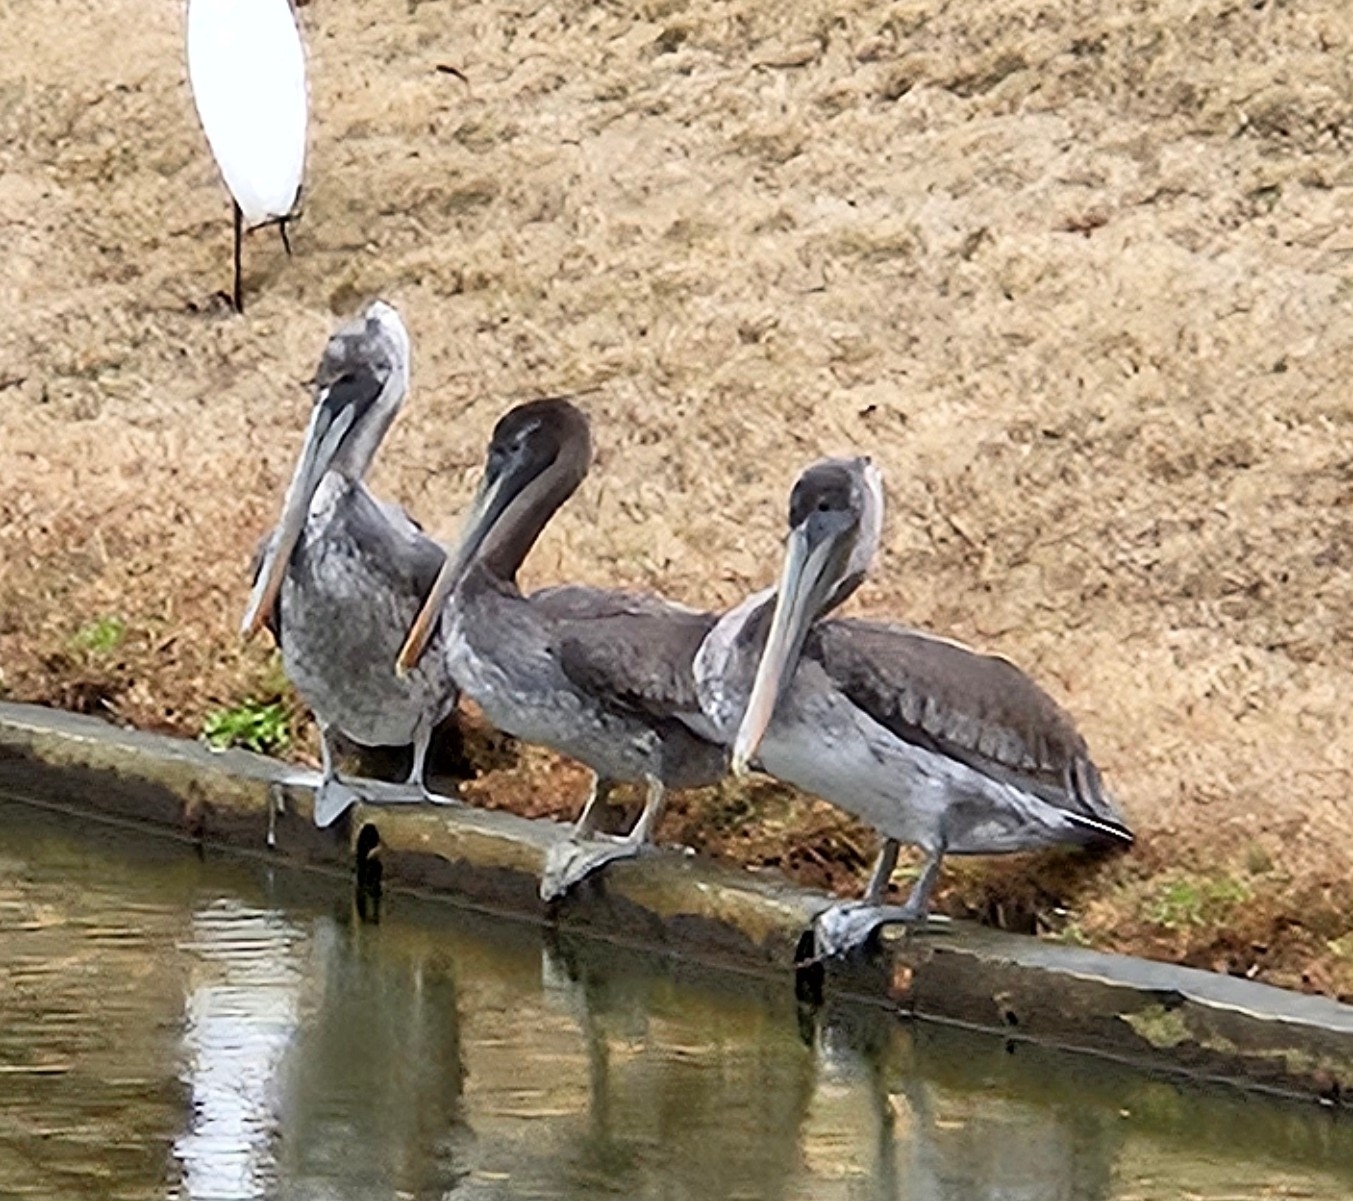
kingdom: Animalia
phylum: Chordata
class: Aves
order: Pelecaniformes
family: Pelecanidae
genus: Pelecanus
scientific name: Pelecanus occidentalis
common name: Brown pelican
